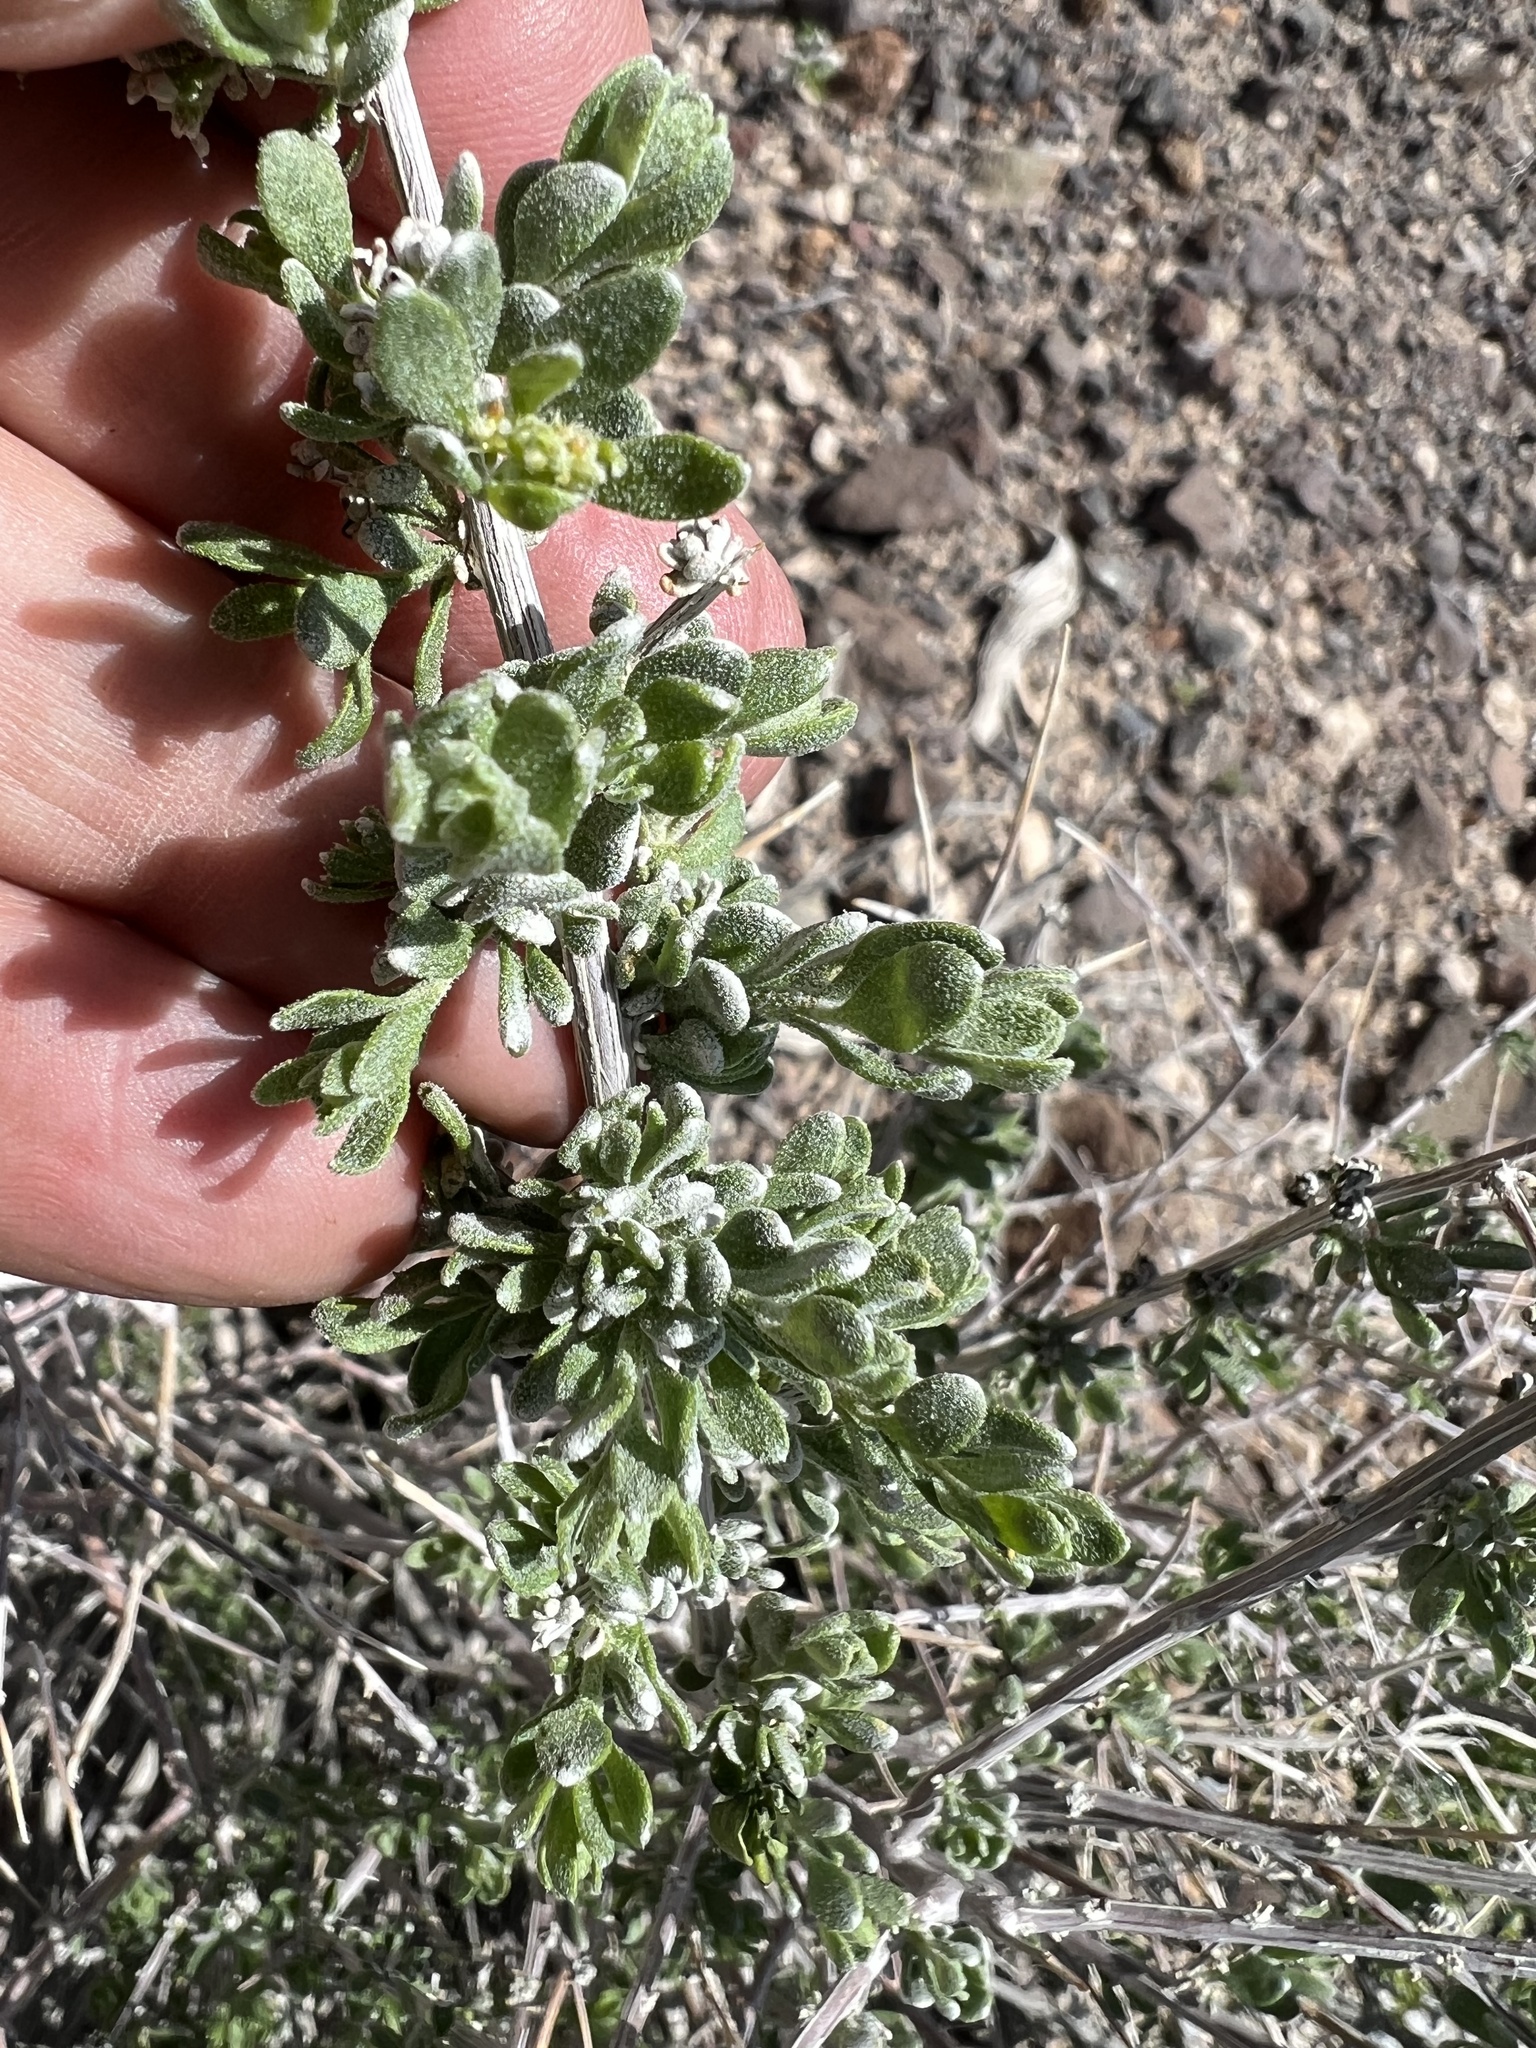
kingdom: Plantae
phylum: Tracheophyta
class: Magnoliopsida
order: Caryophyllales
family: Amaranthaceae
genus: Grayia
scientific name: Grayia spinosa
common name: Spiny hopsage
